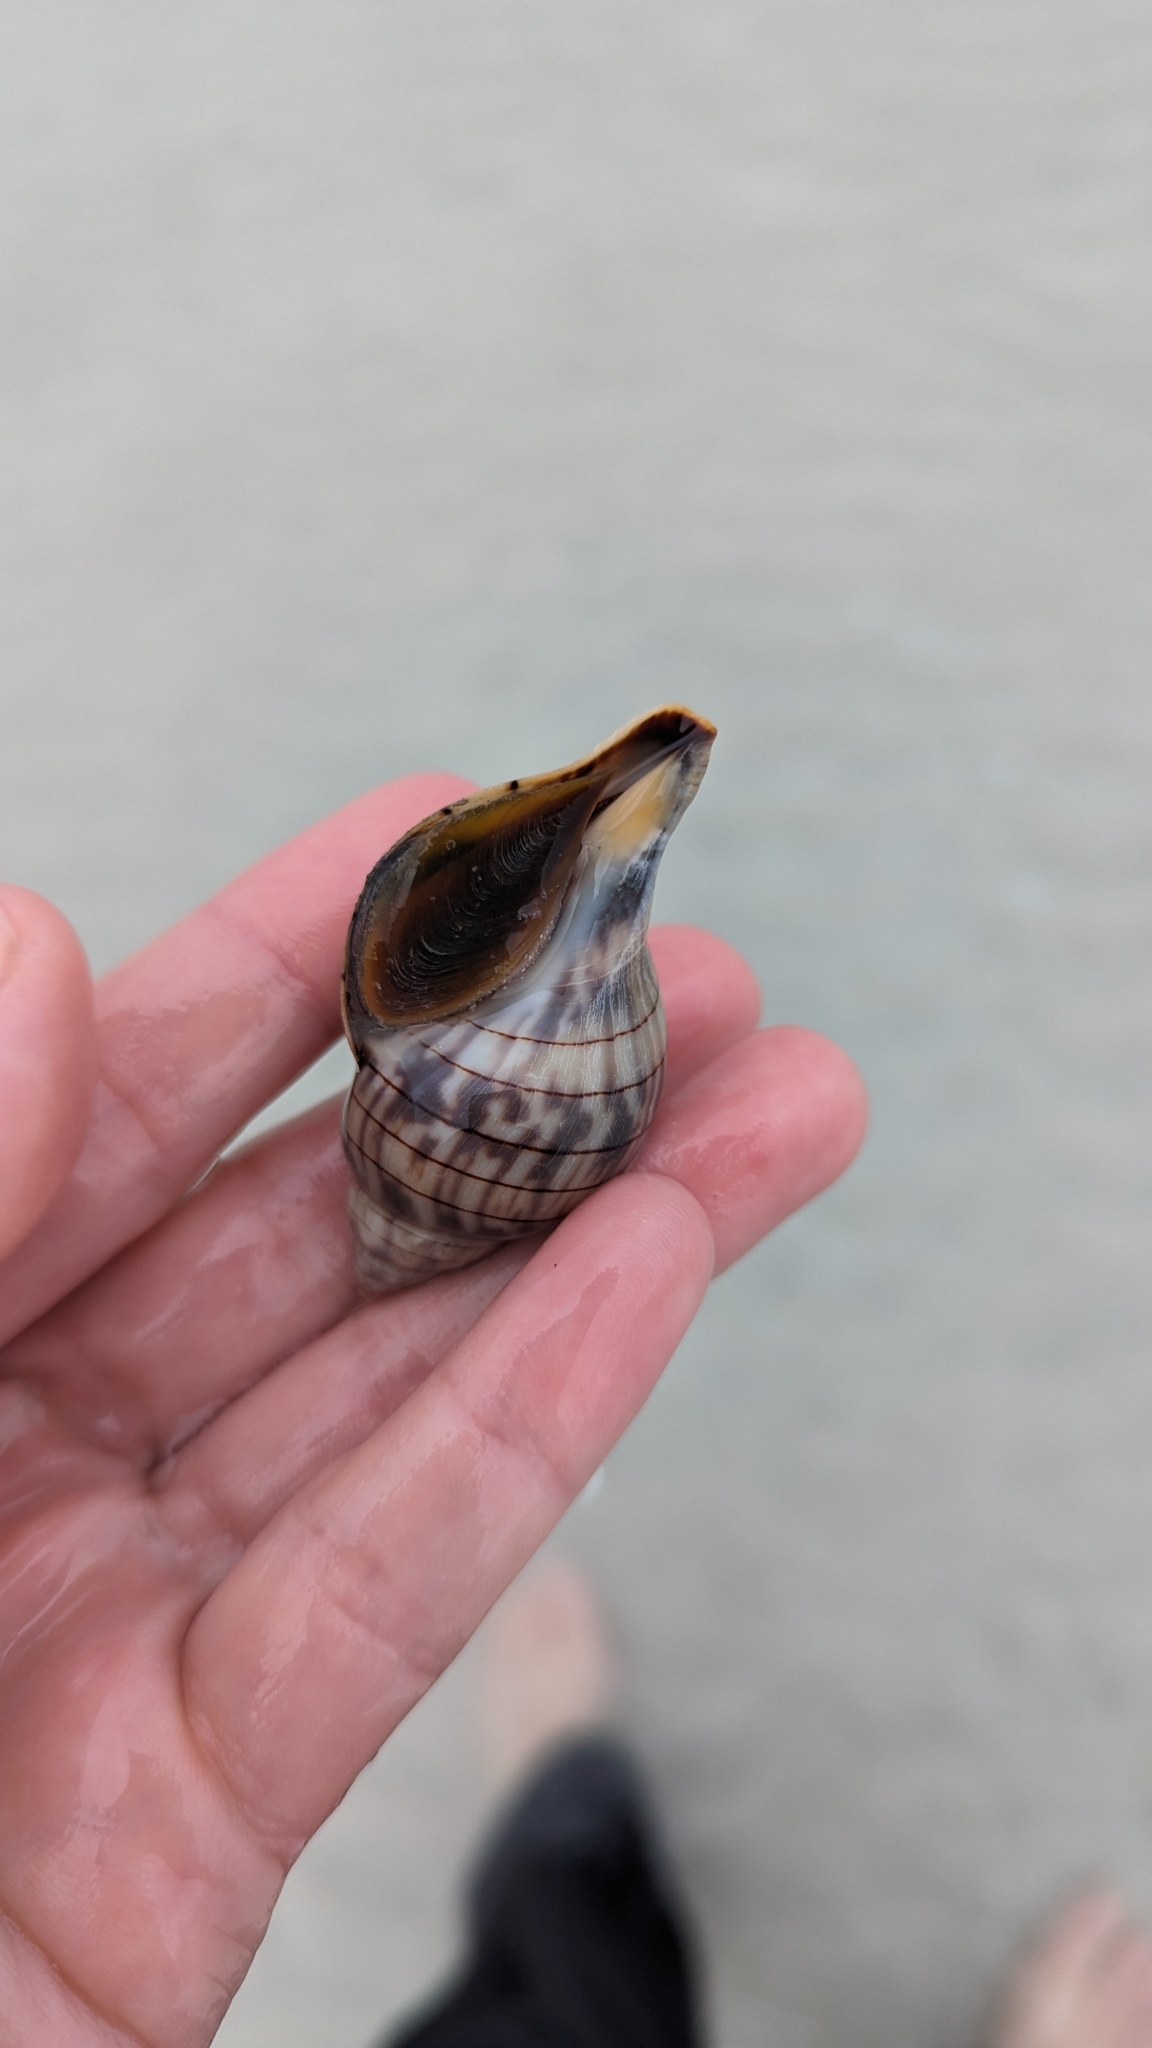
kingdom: Animalia
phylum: Mollusca
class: Gastropoda
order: Neogastropoda
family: Fasciolariidae
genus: Cinctura
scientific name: Cinctura hunteria
